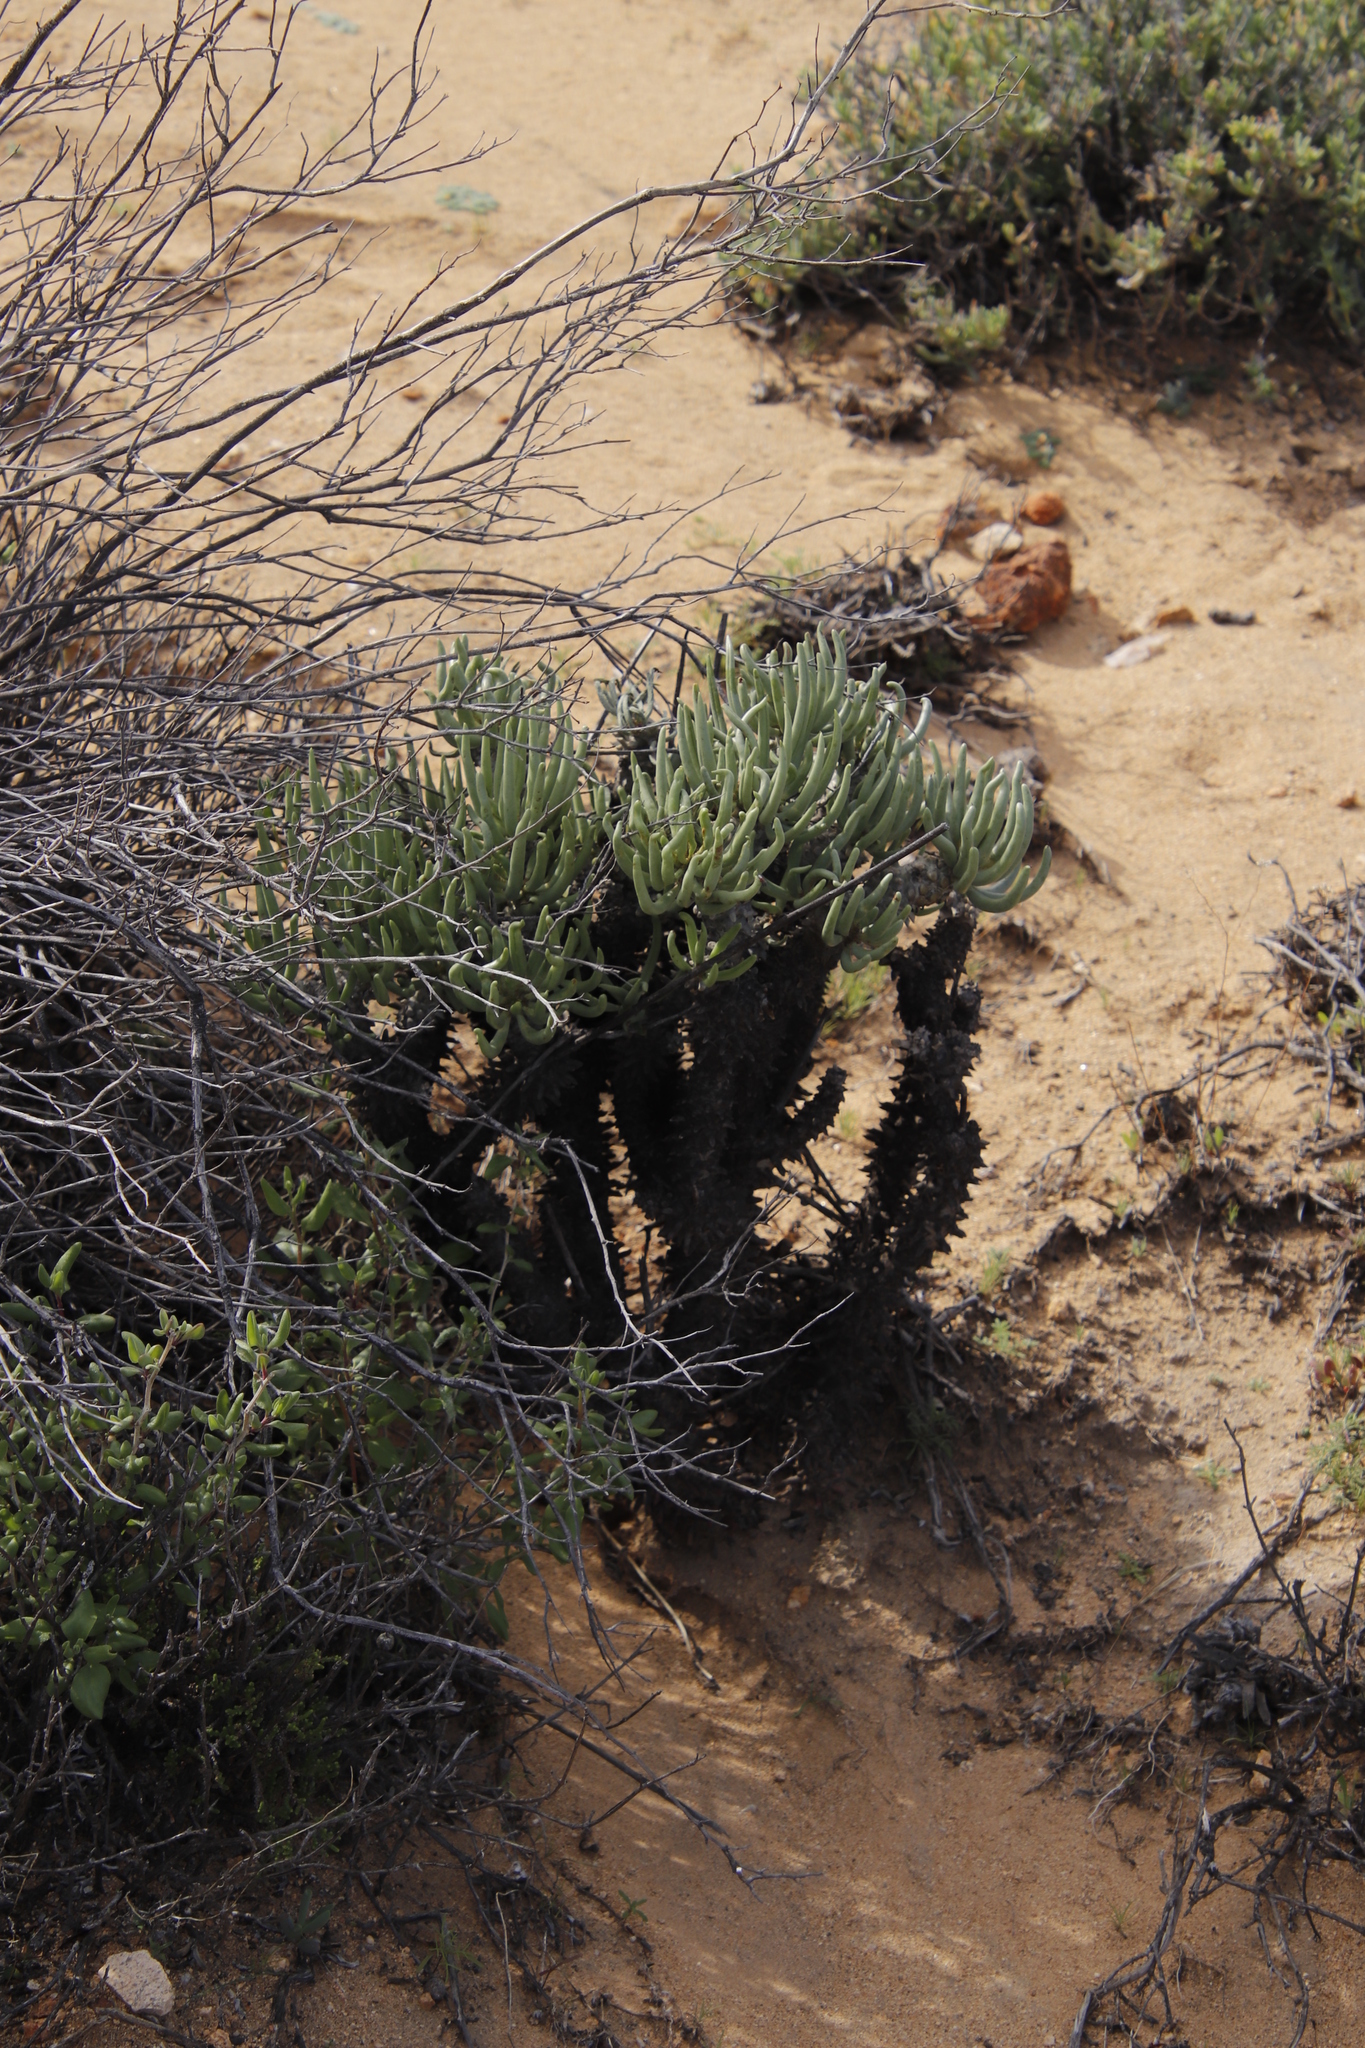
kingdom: Plantae
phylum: Tracheophyta
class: Magnoliopsida
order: Saxifragales
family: Crassulaceae
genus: Tylecodon
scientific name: Tylecodon wallichii
